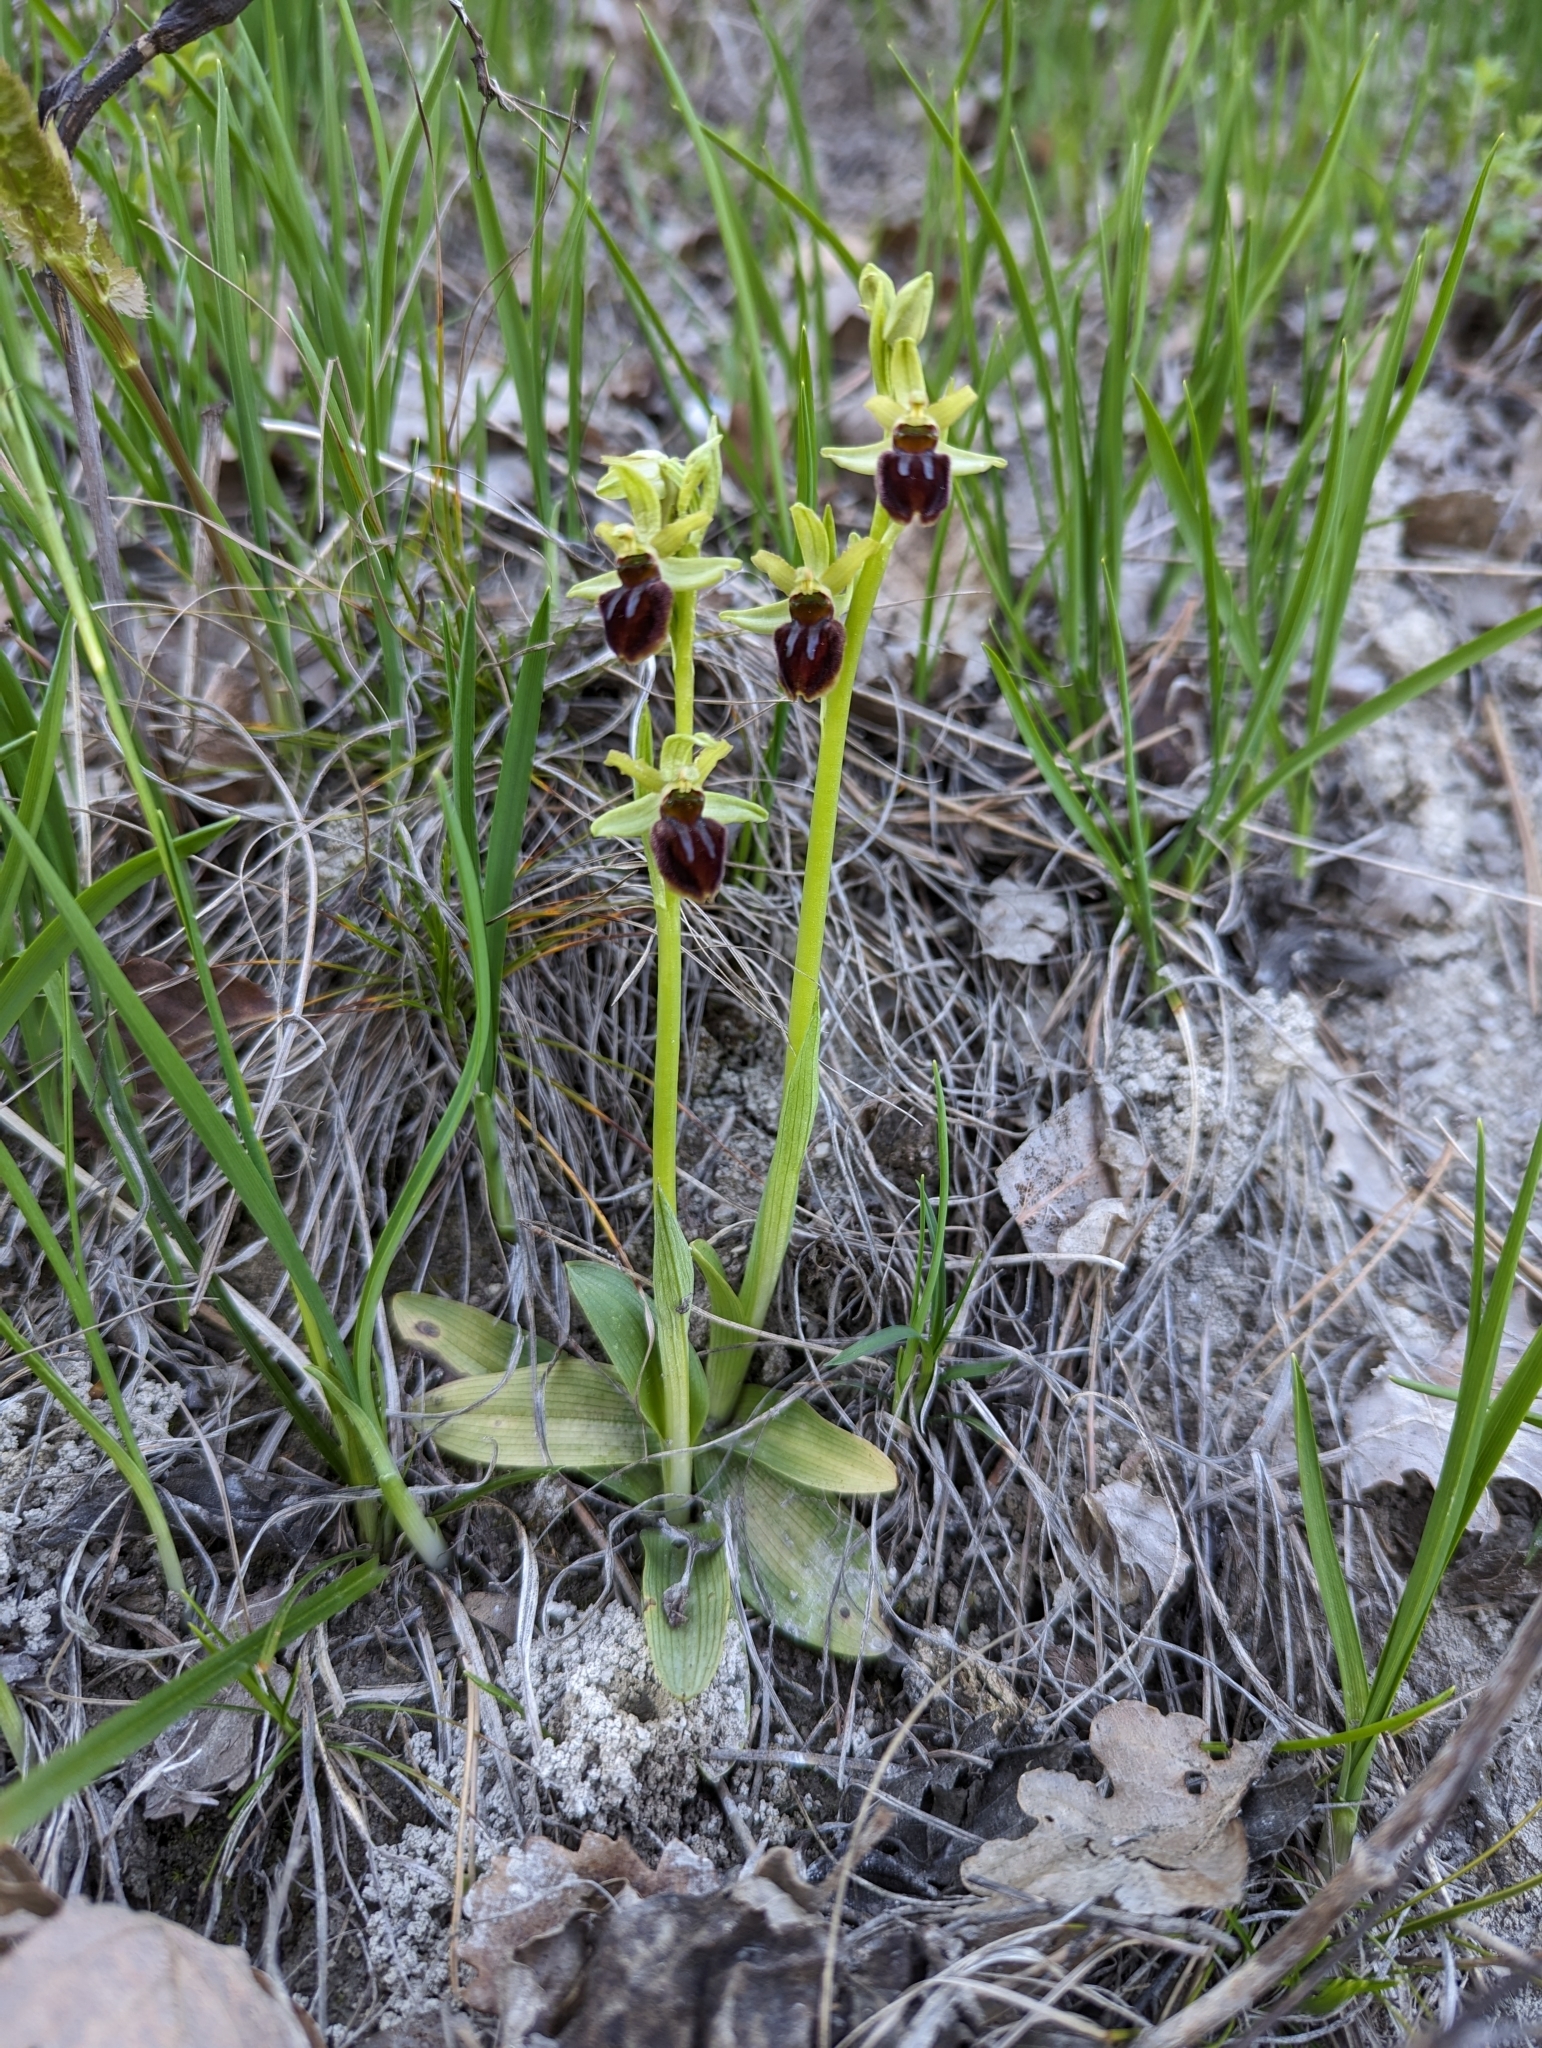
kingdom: Plantae
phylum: Tracheophyta
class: Liliopsida
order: Asparagales
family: Orchidaceae
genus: Ophrys
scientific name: Ophrys sphegodes
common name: Early spider-orchid
